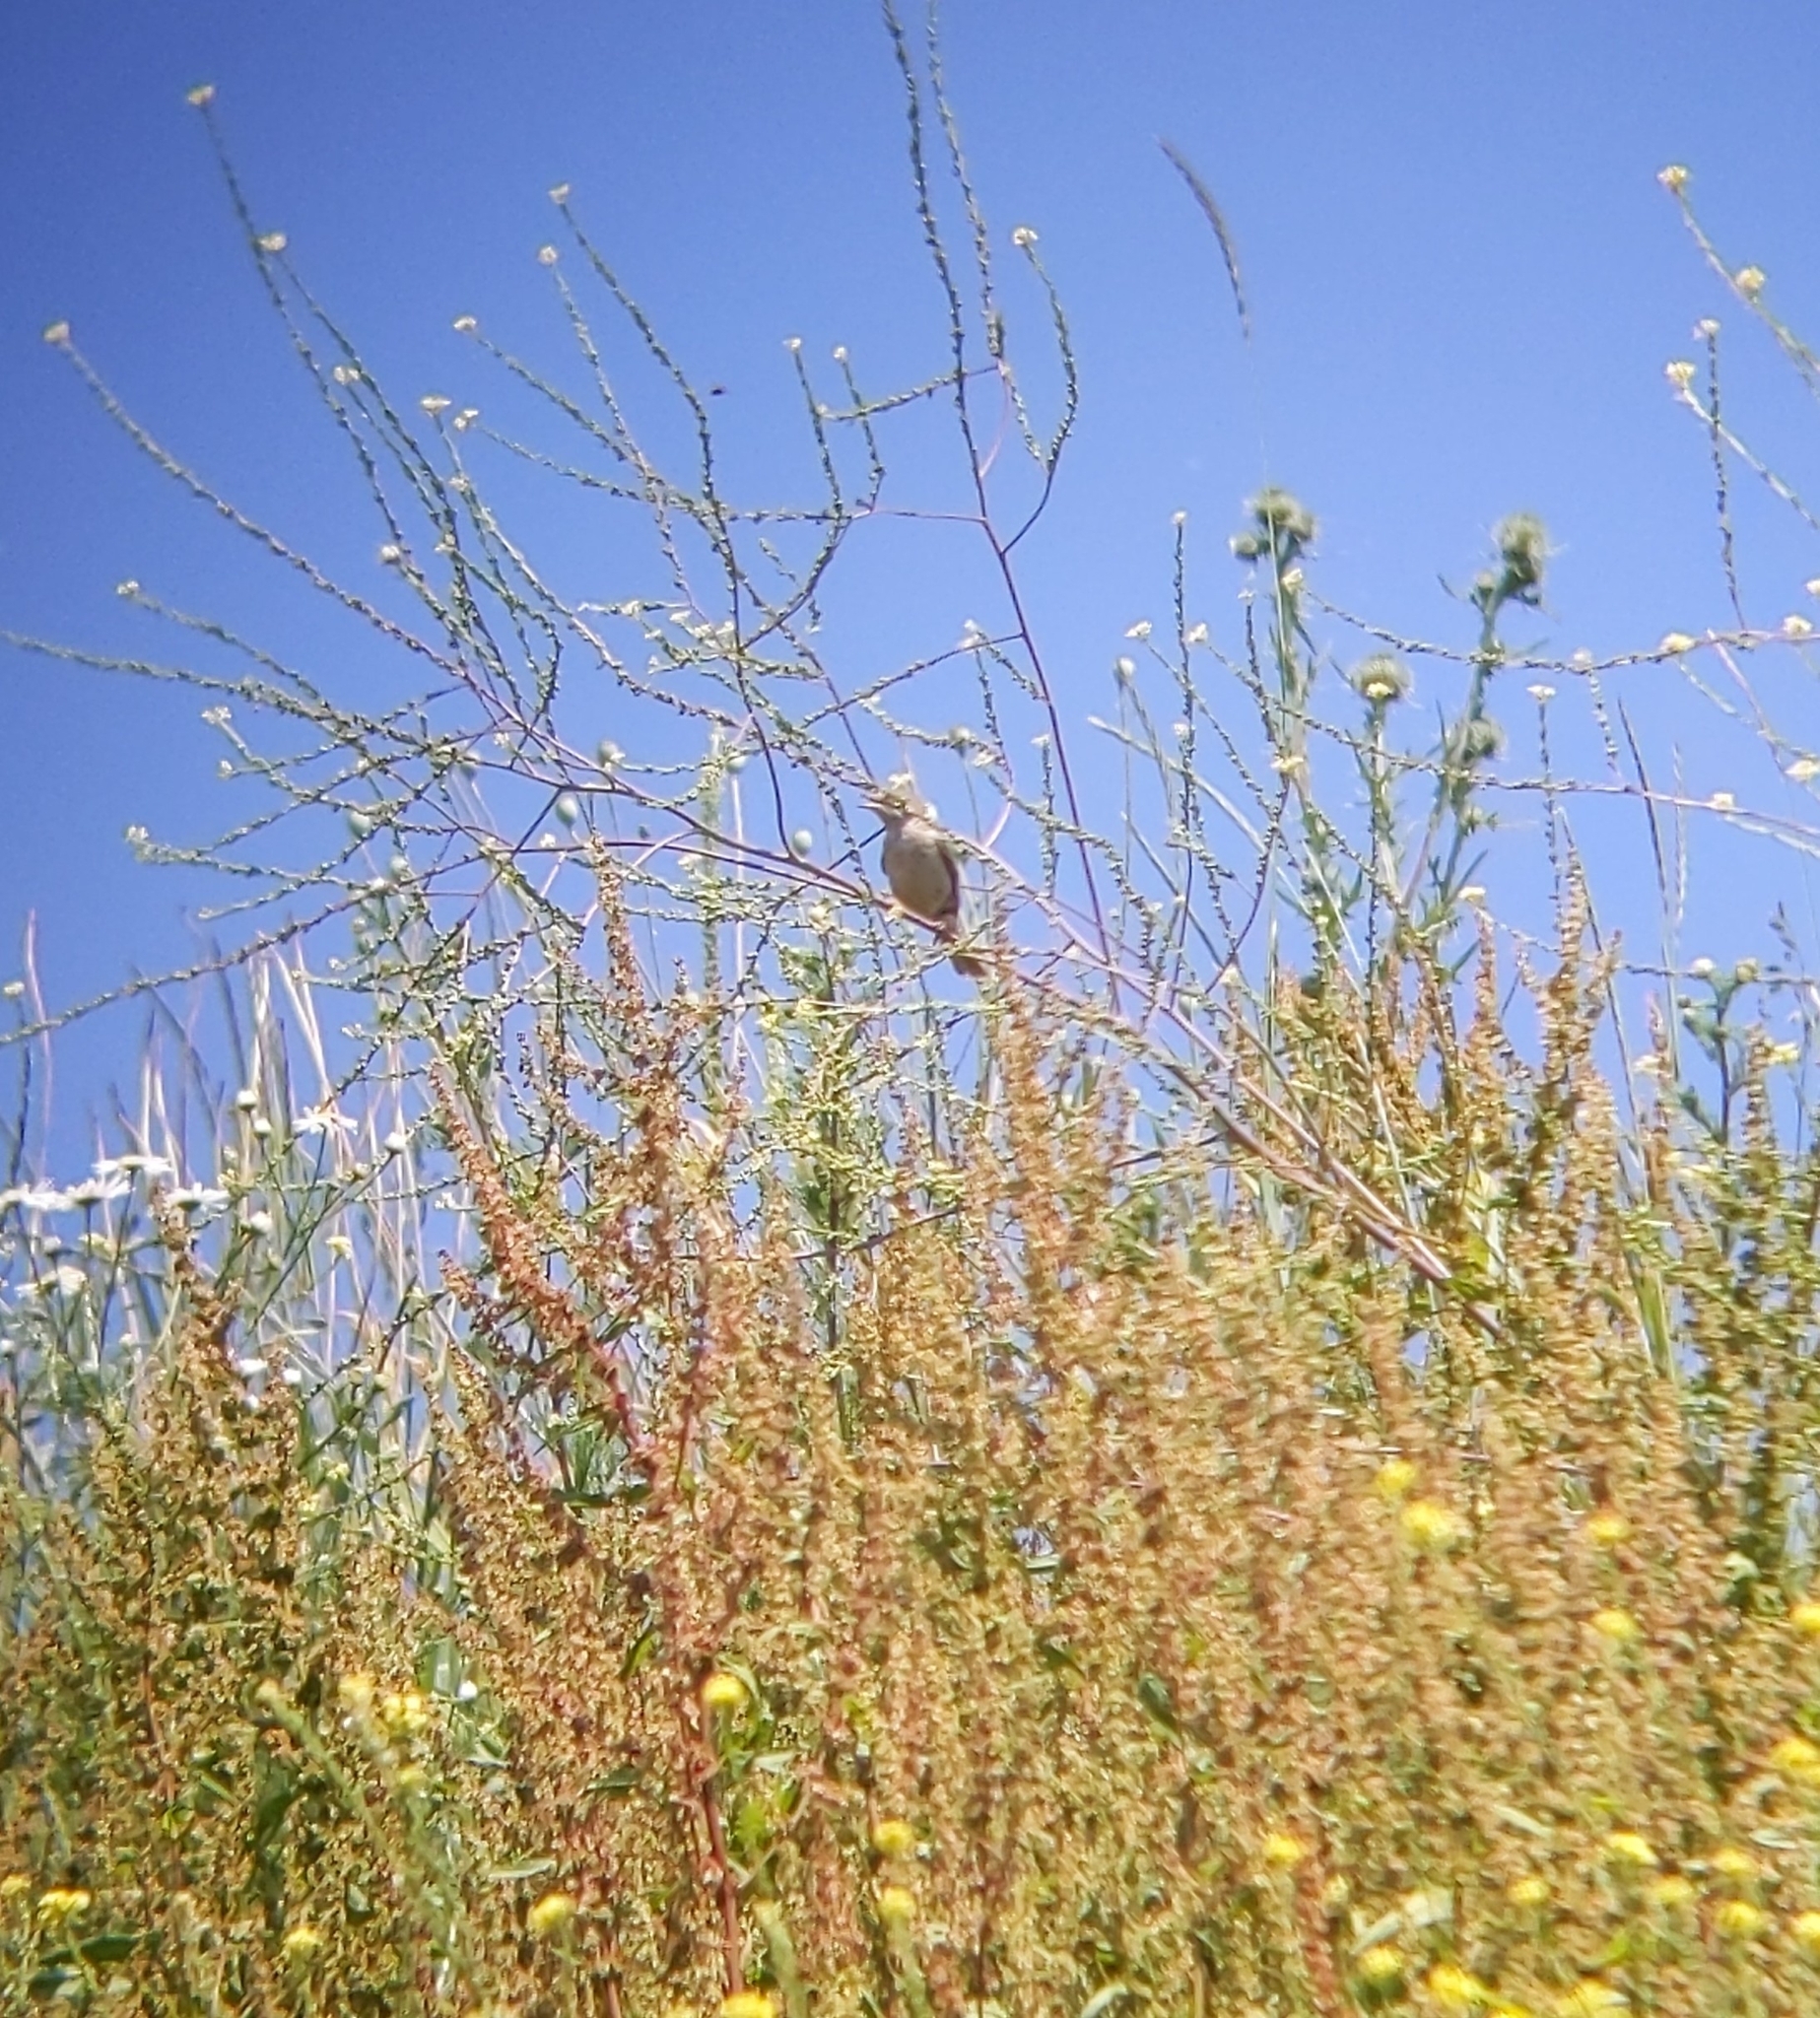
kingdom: Animalia
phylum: Chordata
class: Aves
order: Passeriformes
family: Sylviidae
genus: Sylvia
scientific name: Sylvia communis
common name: Common whitethroat
